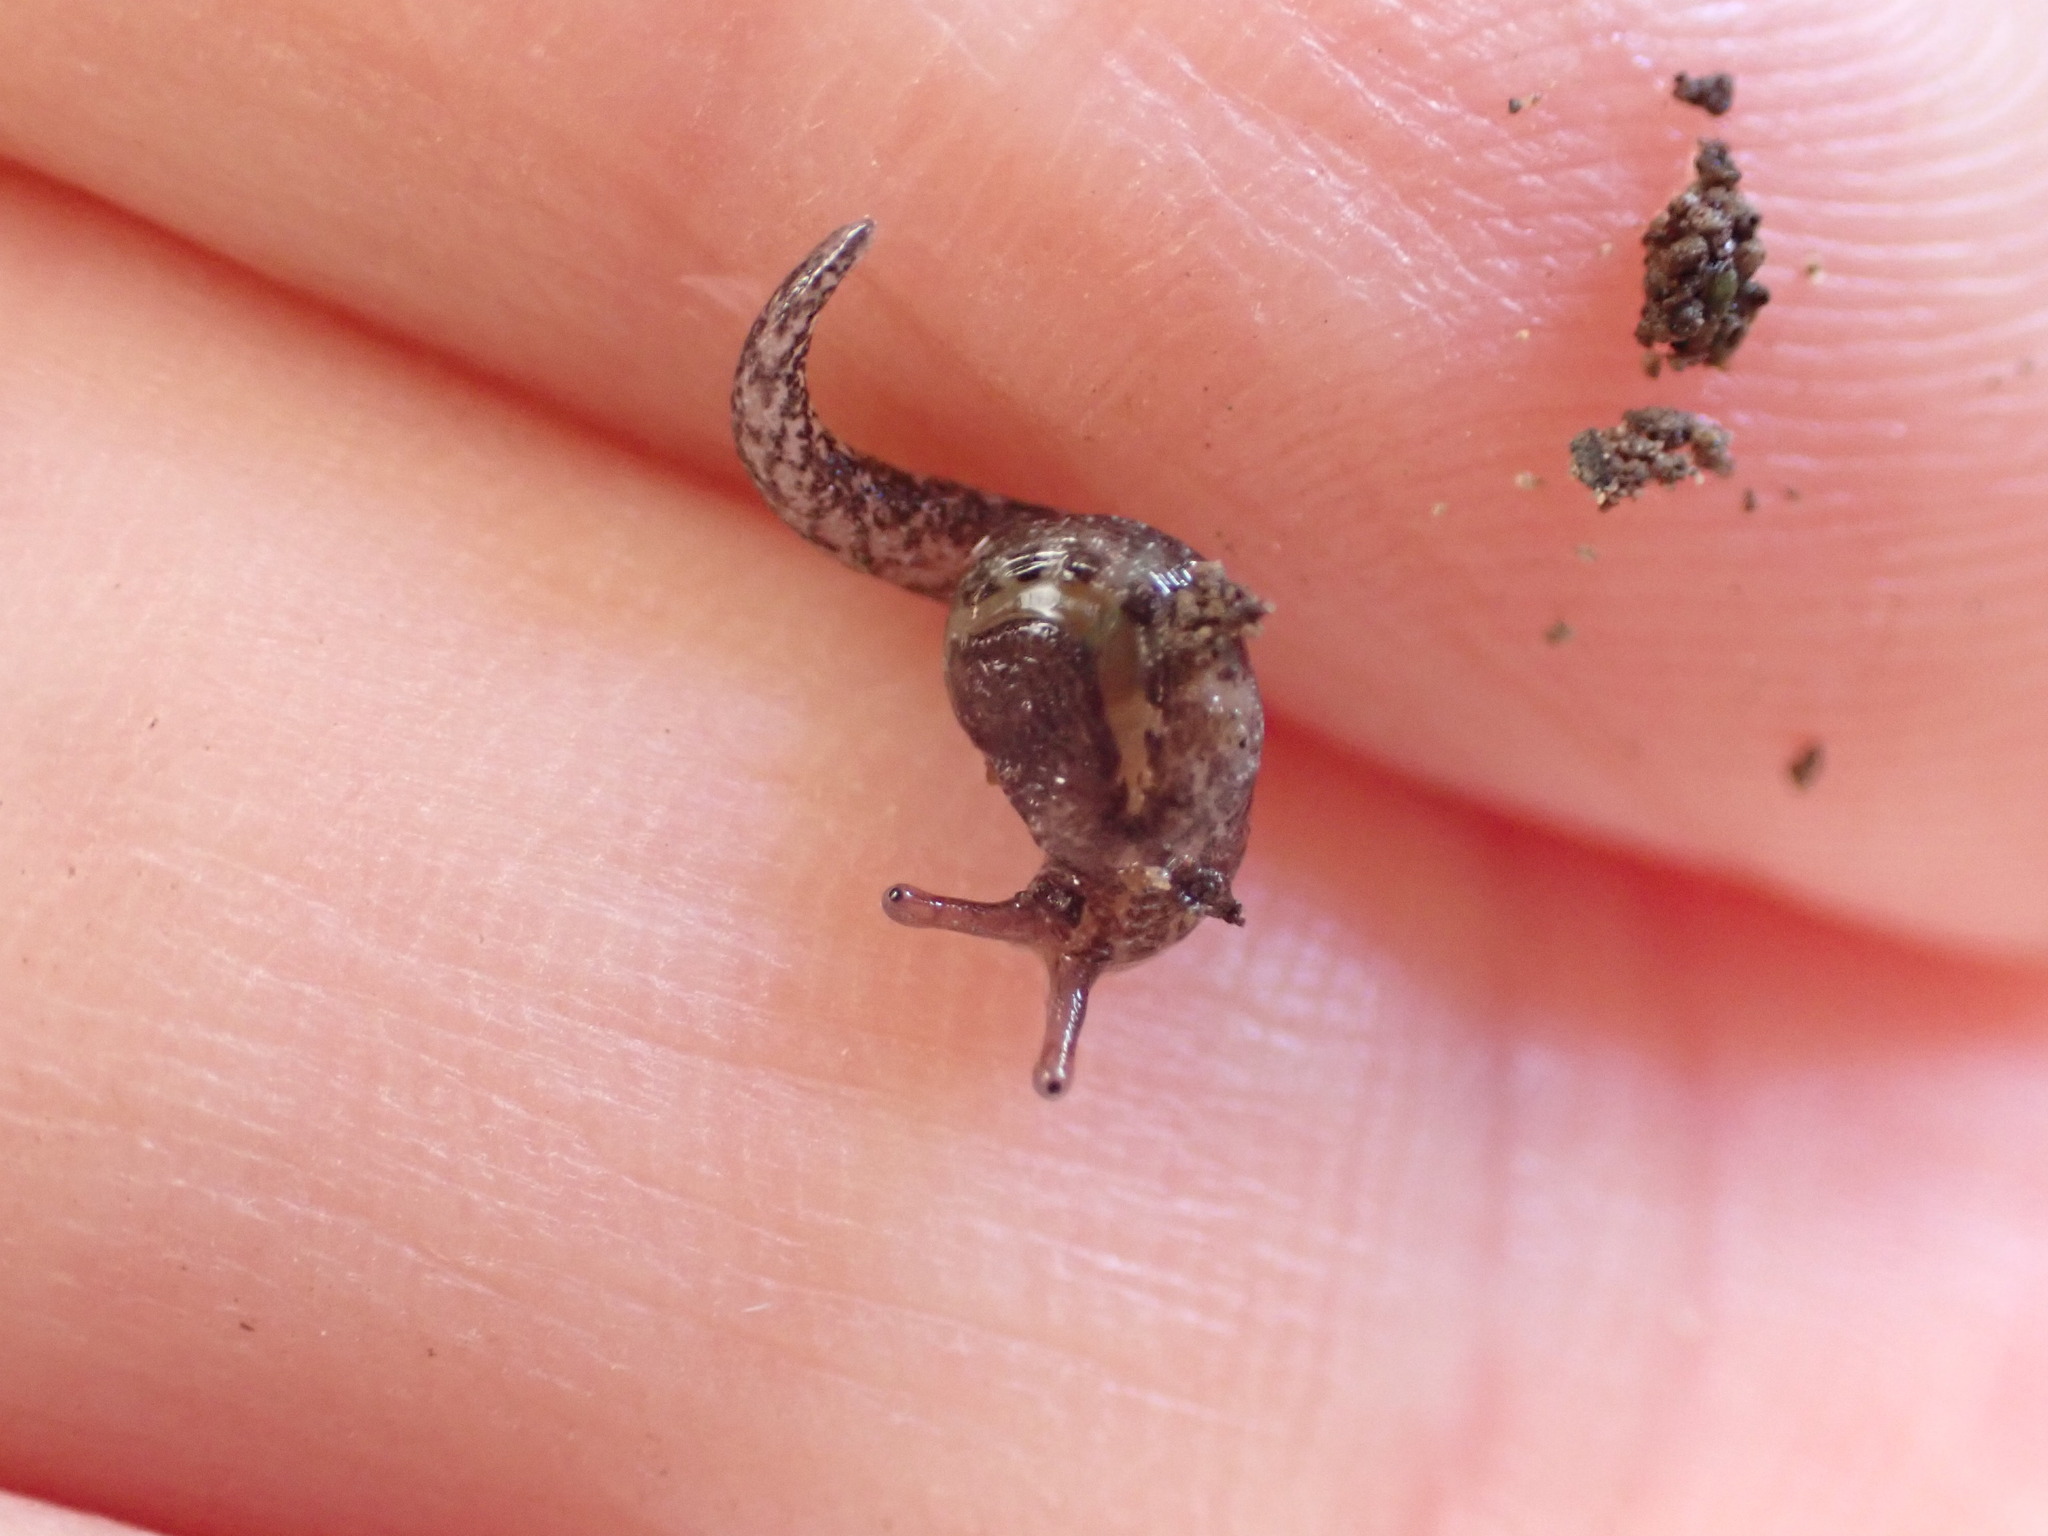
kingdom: Animalia
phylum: Mollusca
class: Gastropoda
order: Stylommatophora
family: Charopidae
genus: Otoconcha
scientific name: Otoconcha dimidiata
